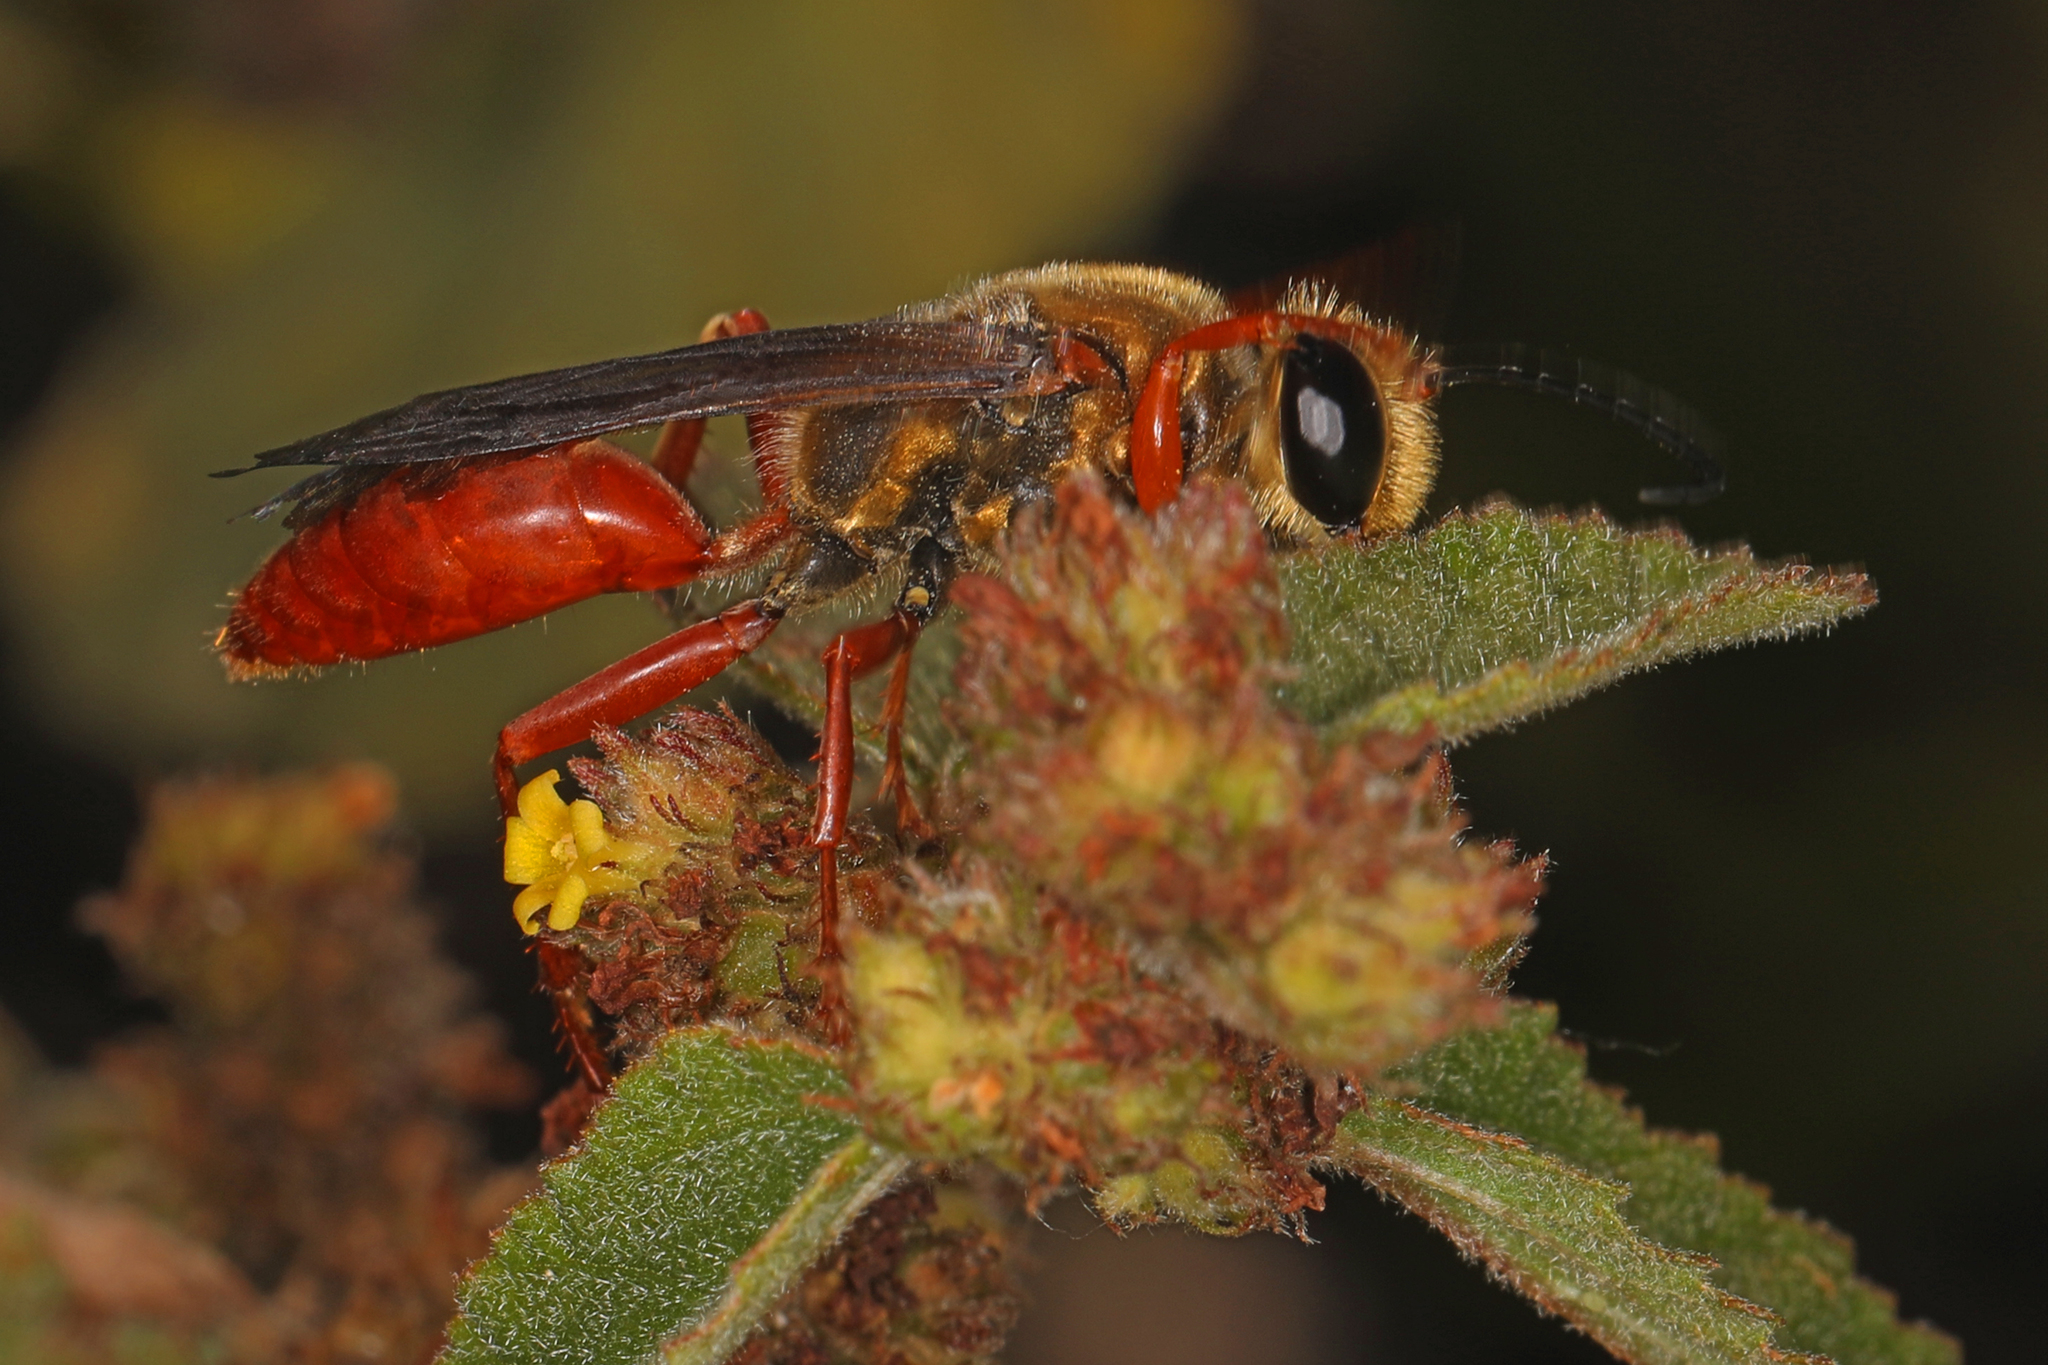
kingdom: Animalia
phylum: Arthropoda
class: Insecta
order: Hymenoptera
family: Sphecidae
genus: Sphex
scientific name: Sphex jamaicensis
